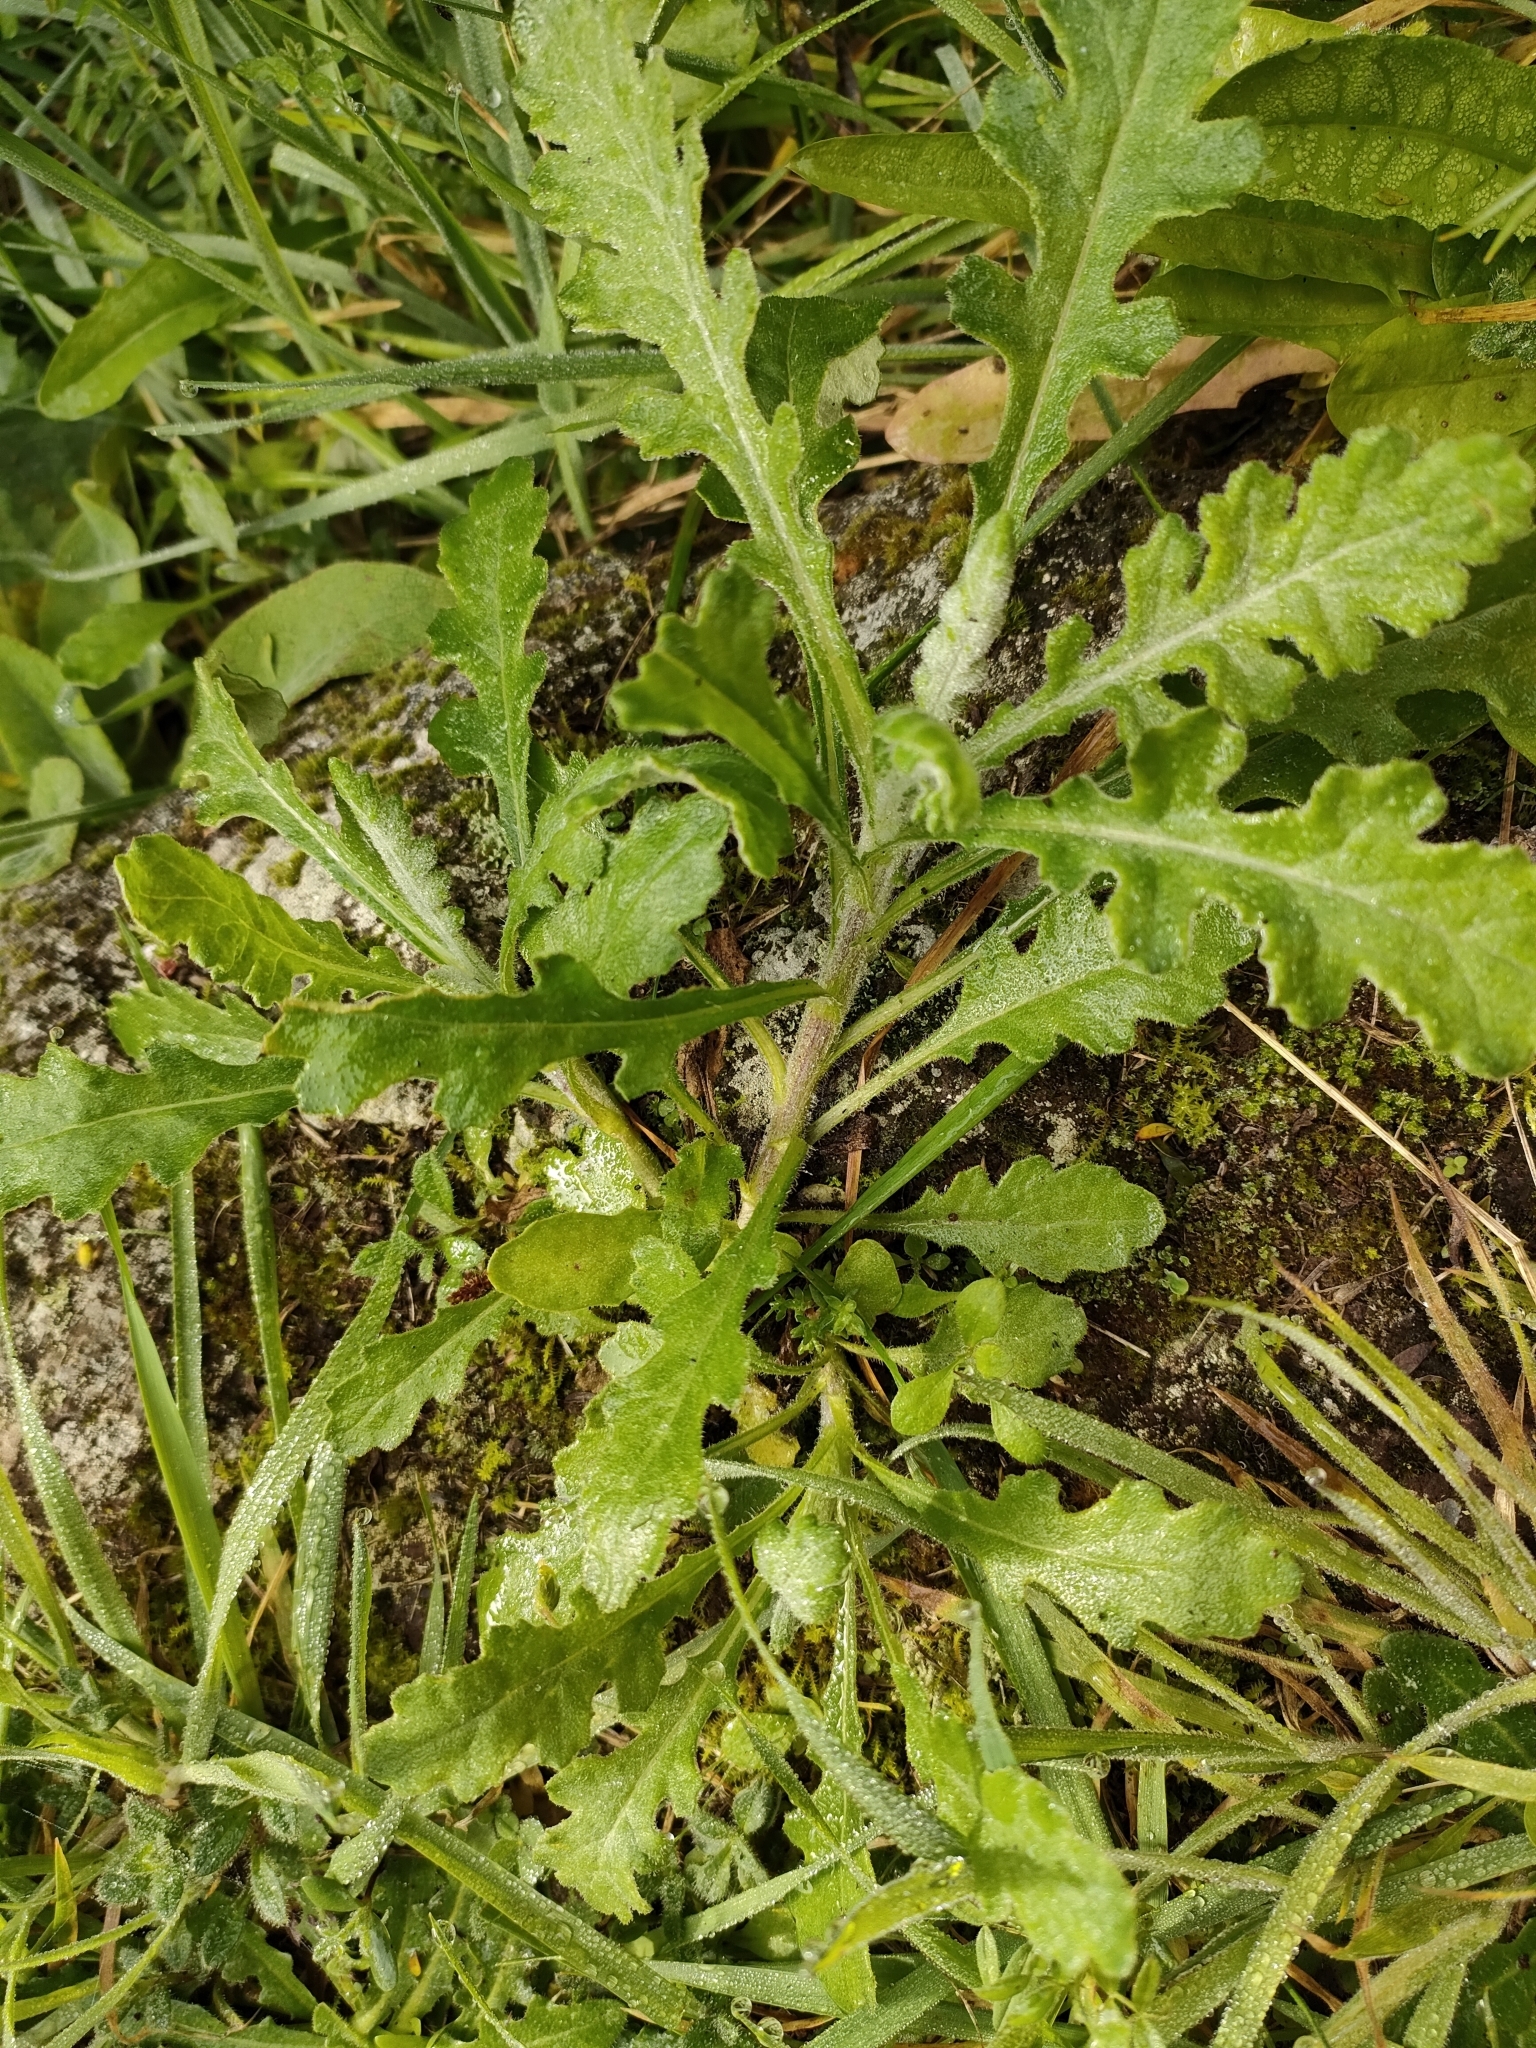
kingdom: Plantae
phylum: Tracheophyta
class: Magnoliopsida
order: Asterales
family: Asteraceae
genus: Senecio
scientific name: Senecio glomeratus
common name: Cutleaf burnweed
